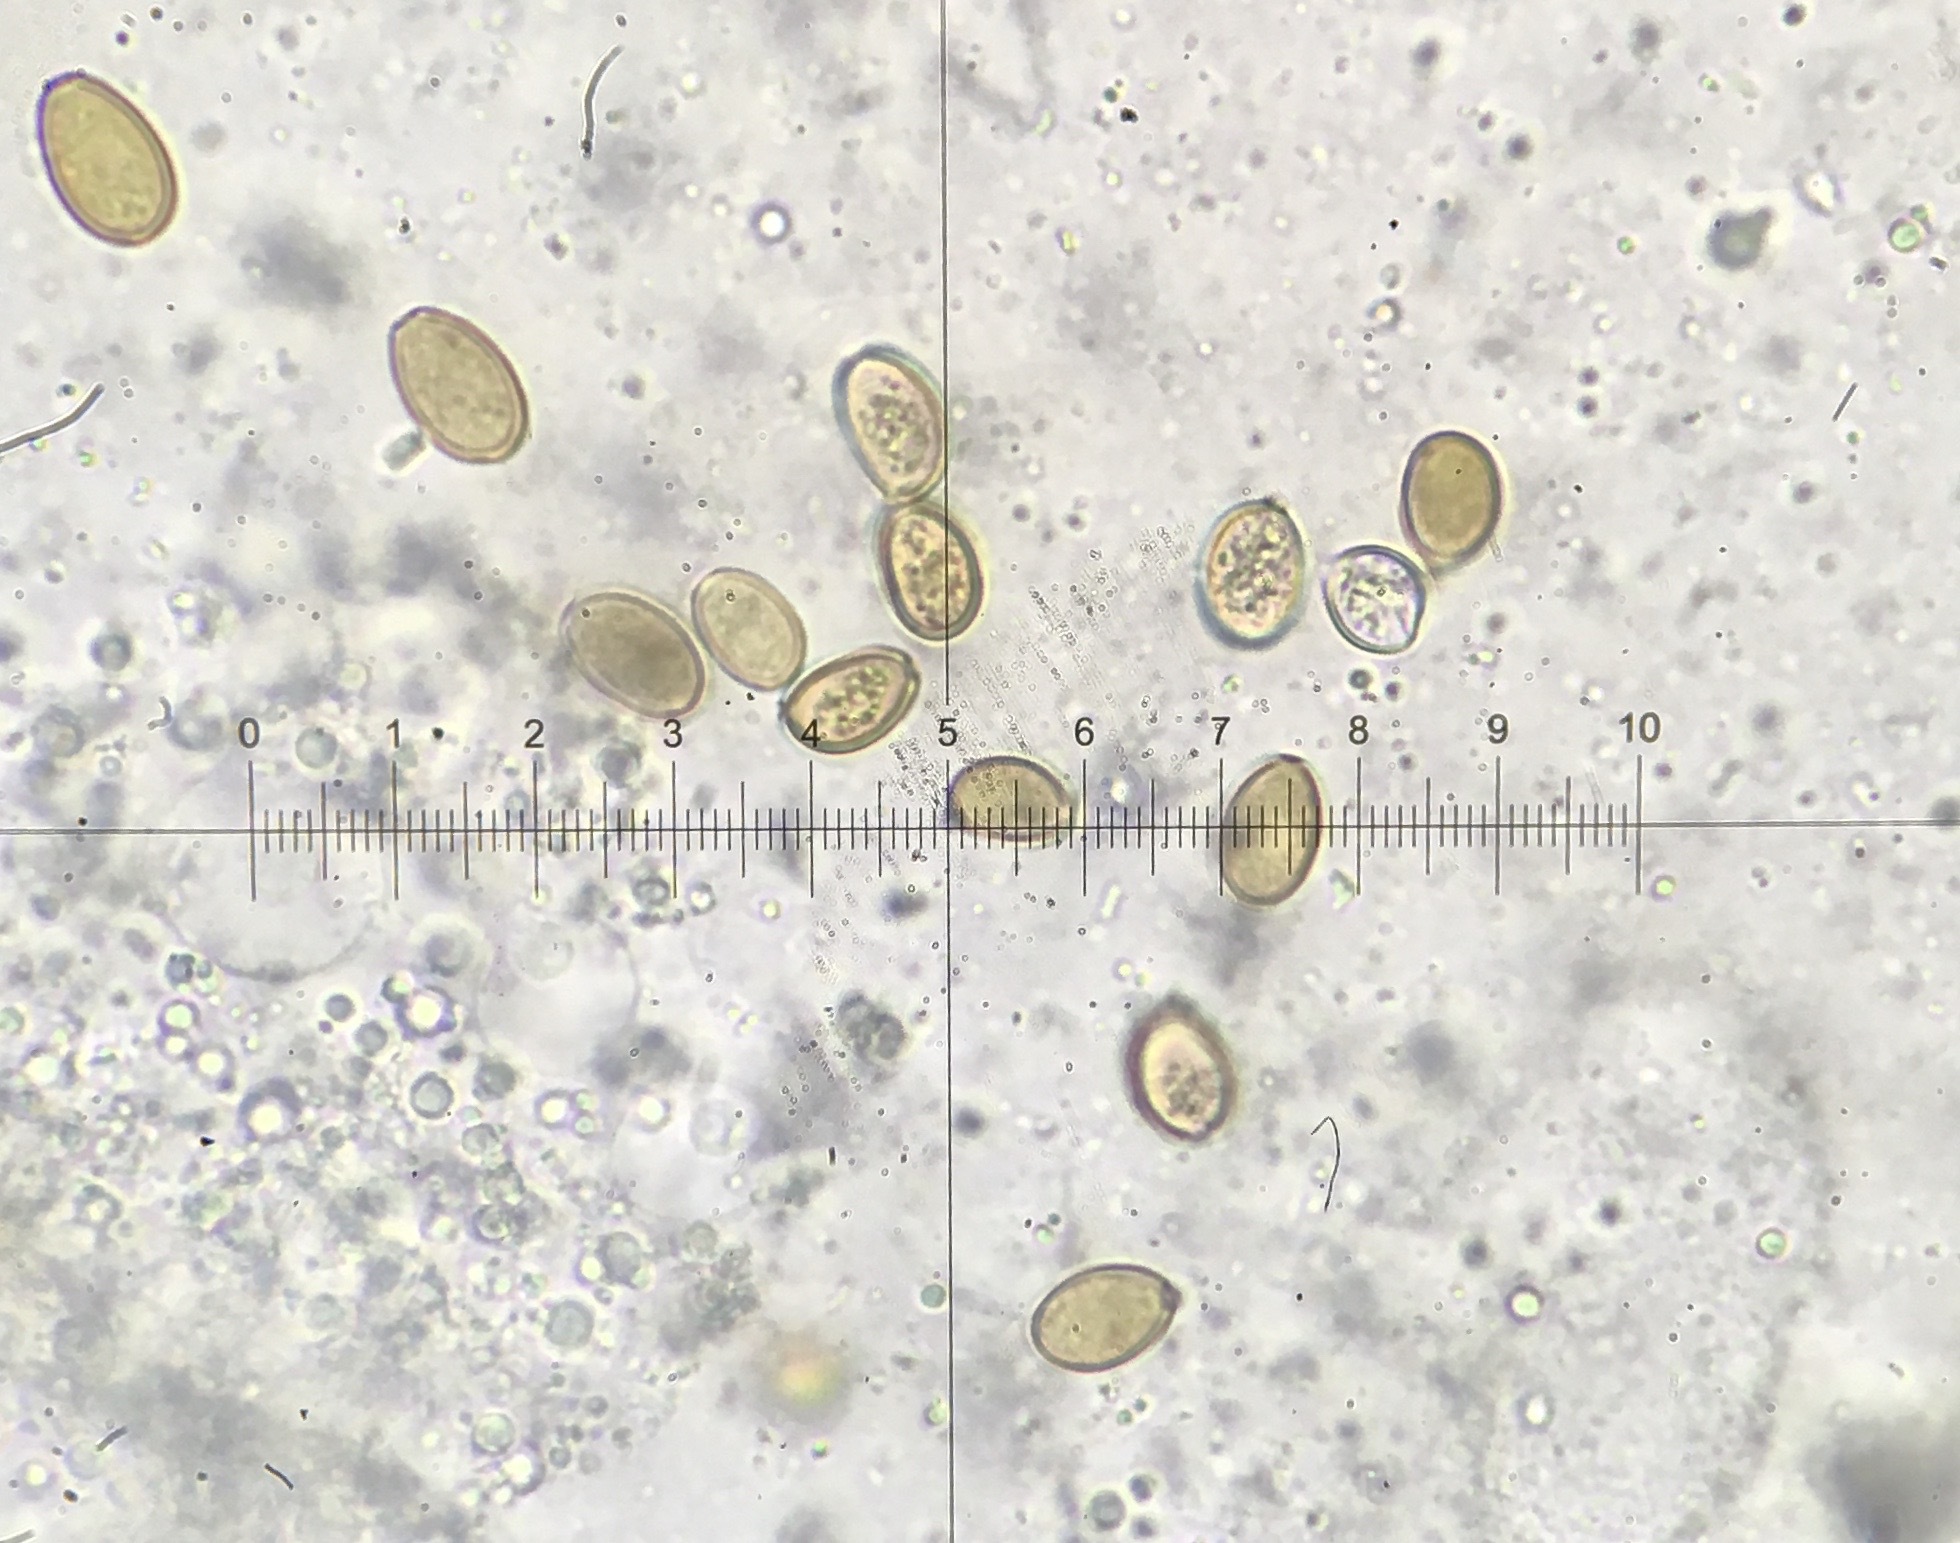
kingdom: Fungi
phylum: Basidiomycota
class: Agaricomycetes
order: Agaricales
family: Inocybaceae
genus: Pseudosperma
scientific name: Pseudosperma friabile
